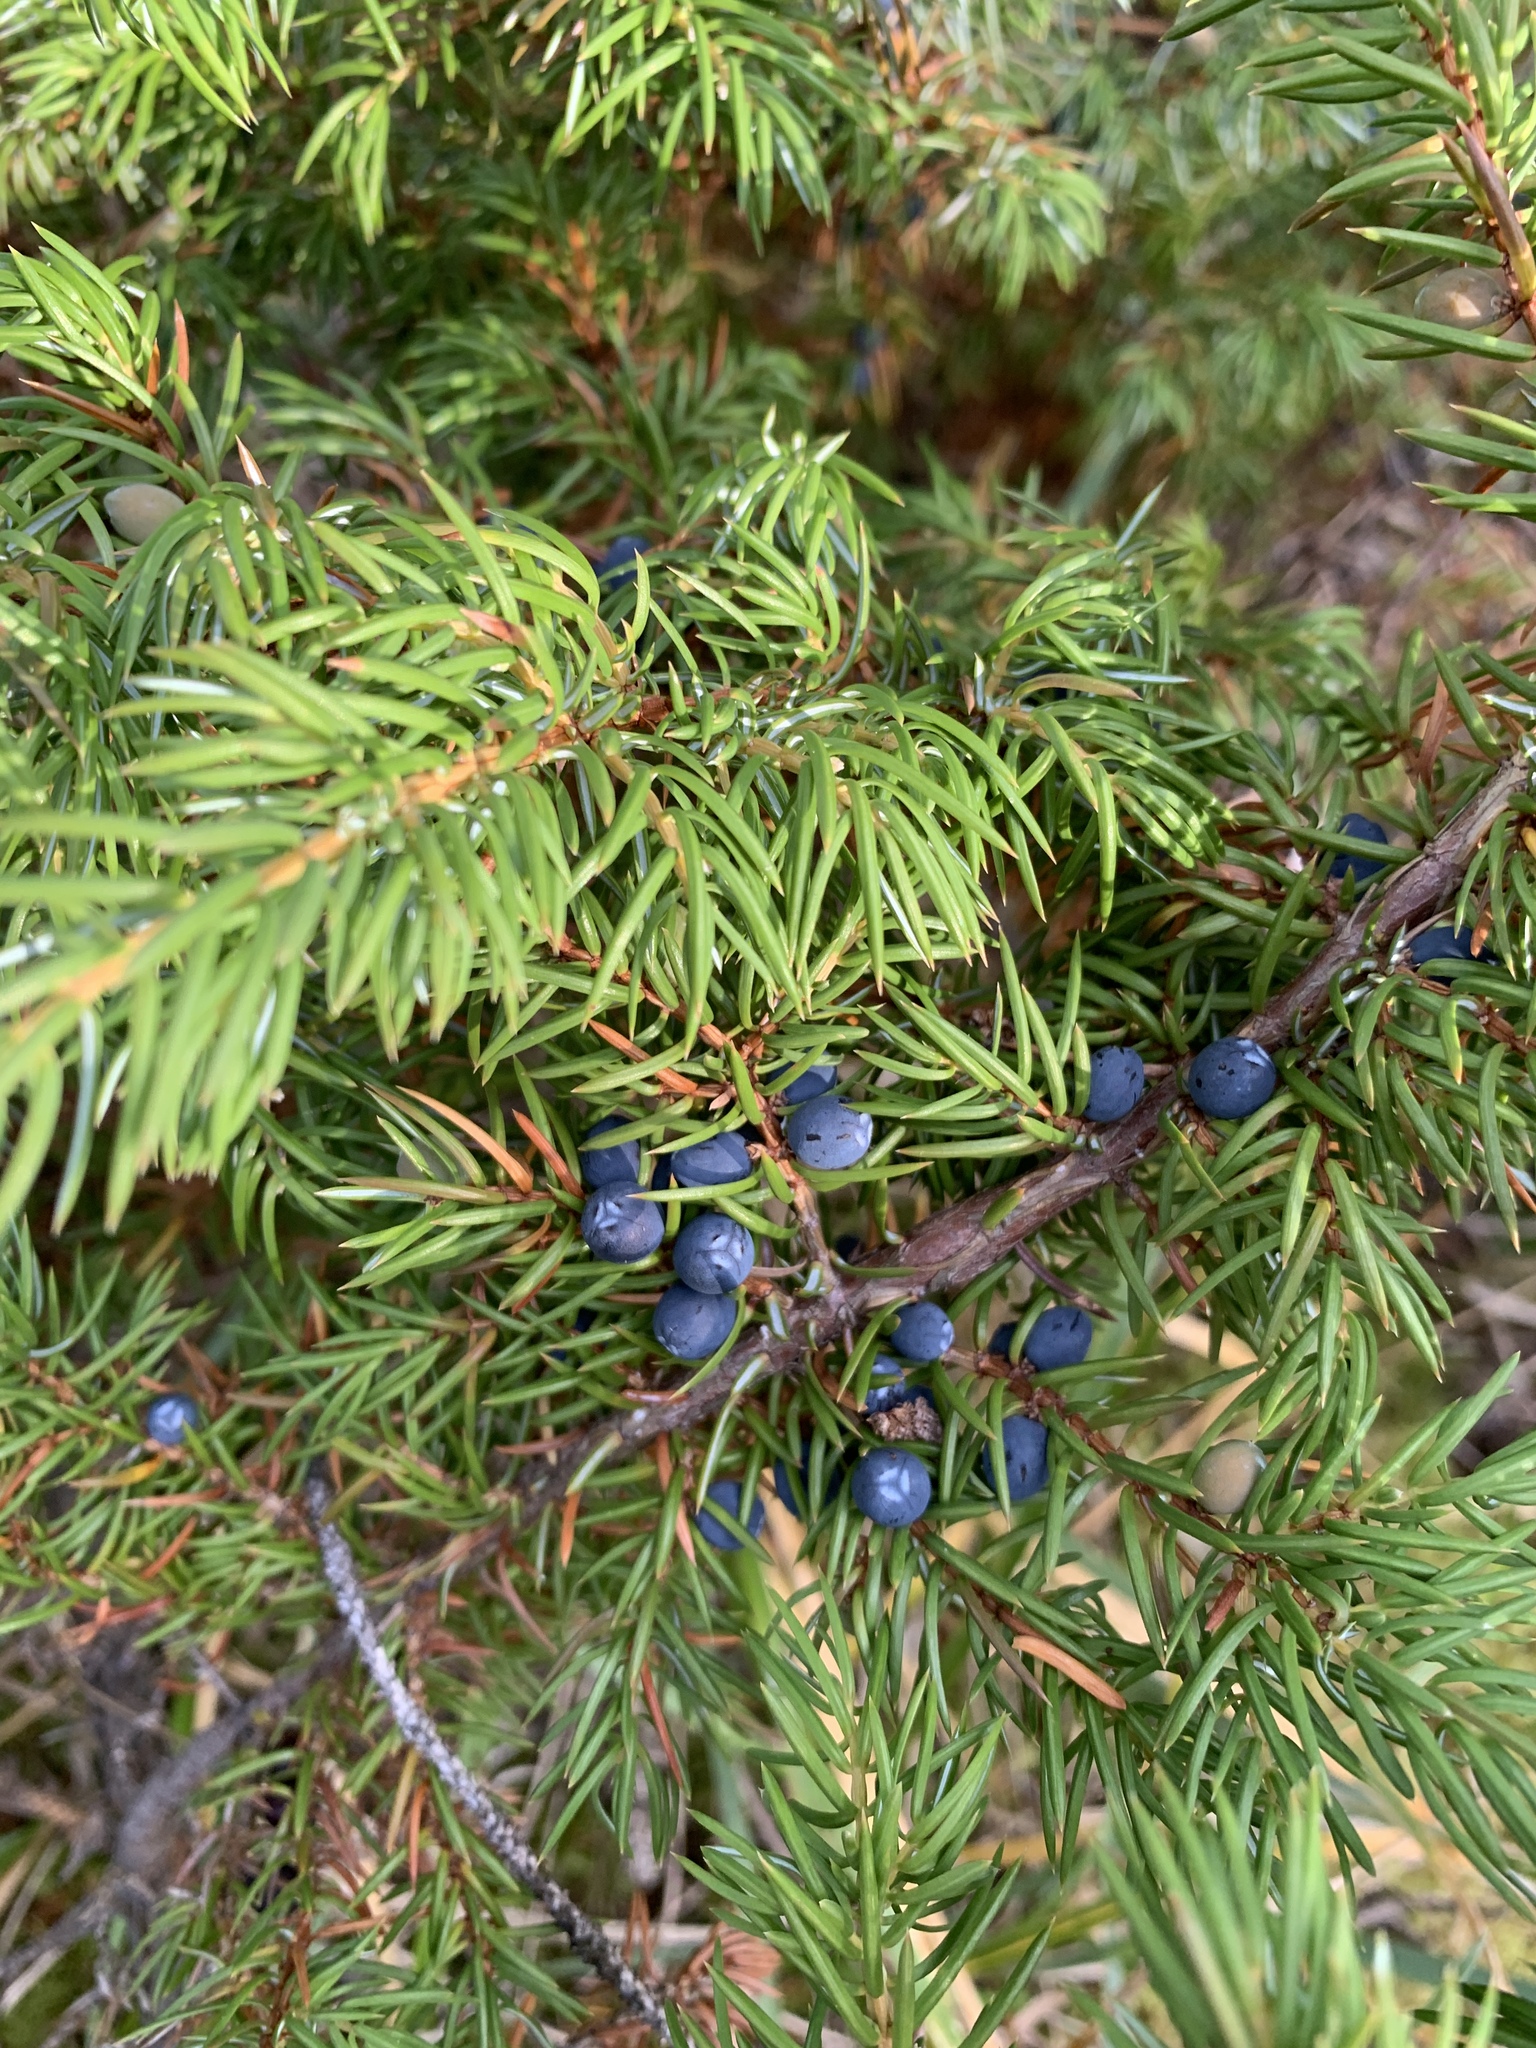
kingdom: Plantae
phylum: Tracheophyta
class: Pinopsida
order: Pinales
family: Cupressaceae
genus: Juniperus
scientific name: Juniperus communis
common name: Common juniper
